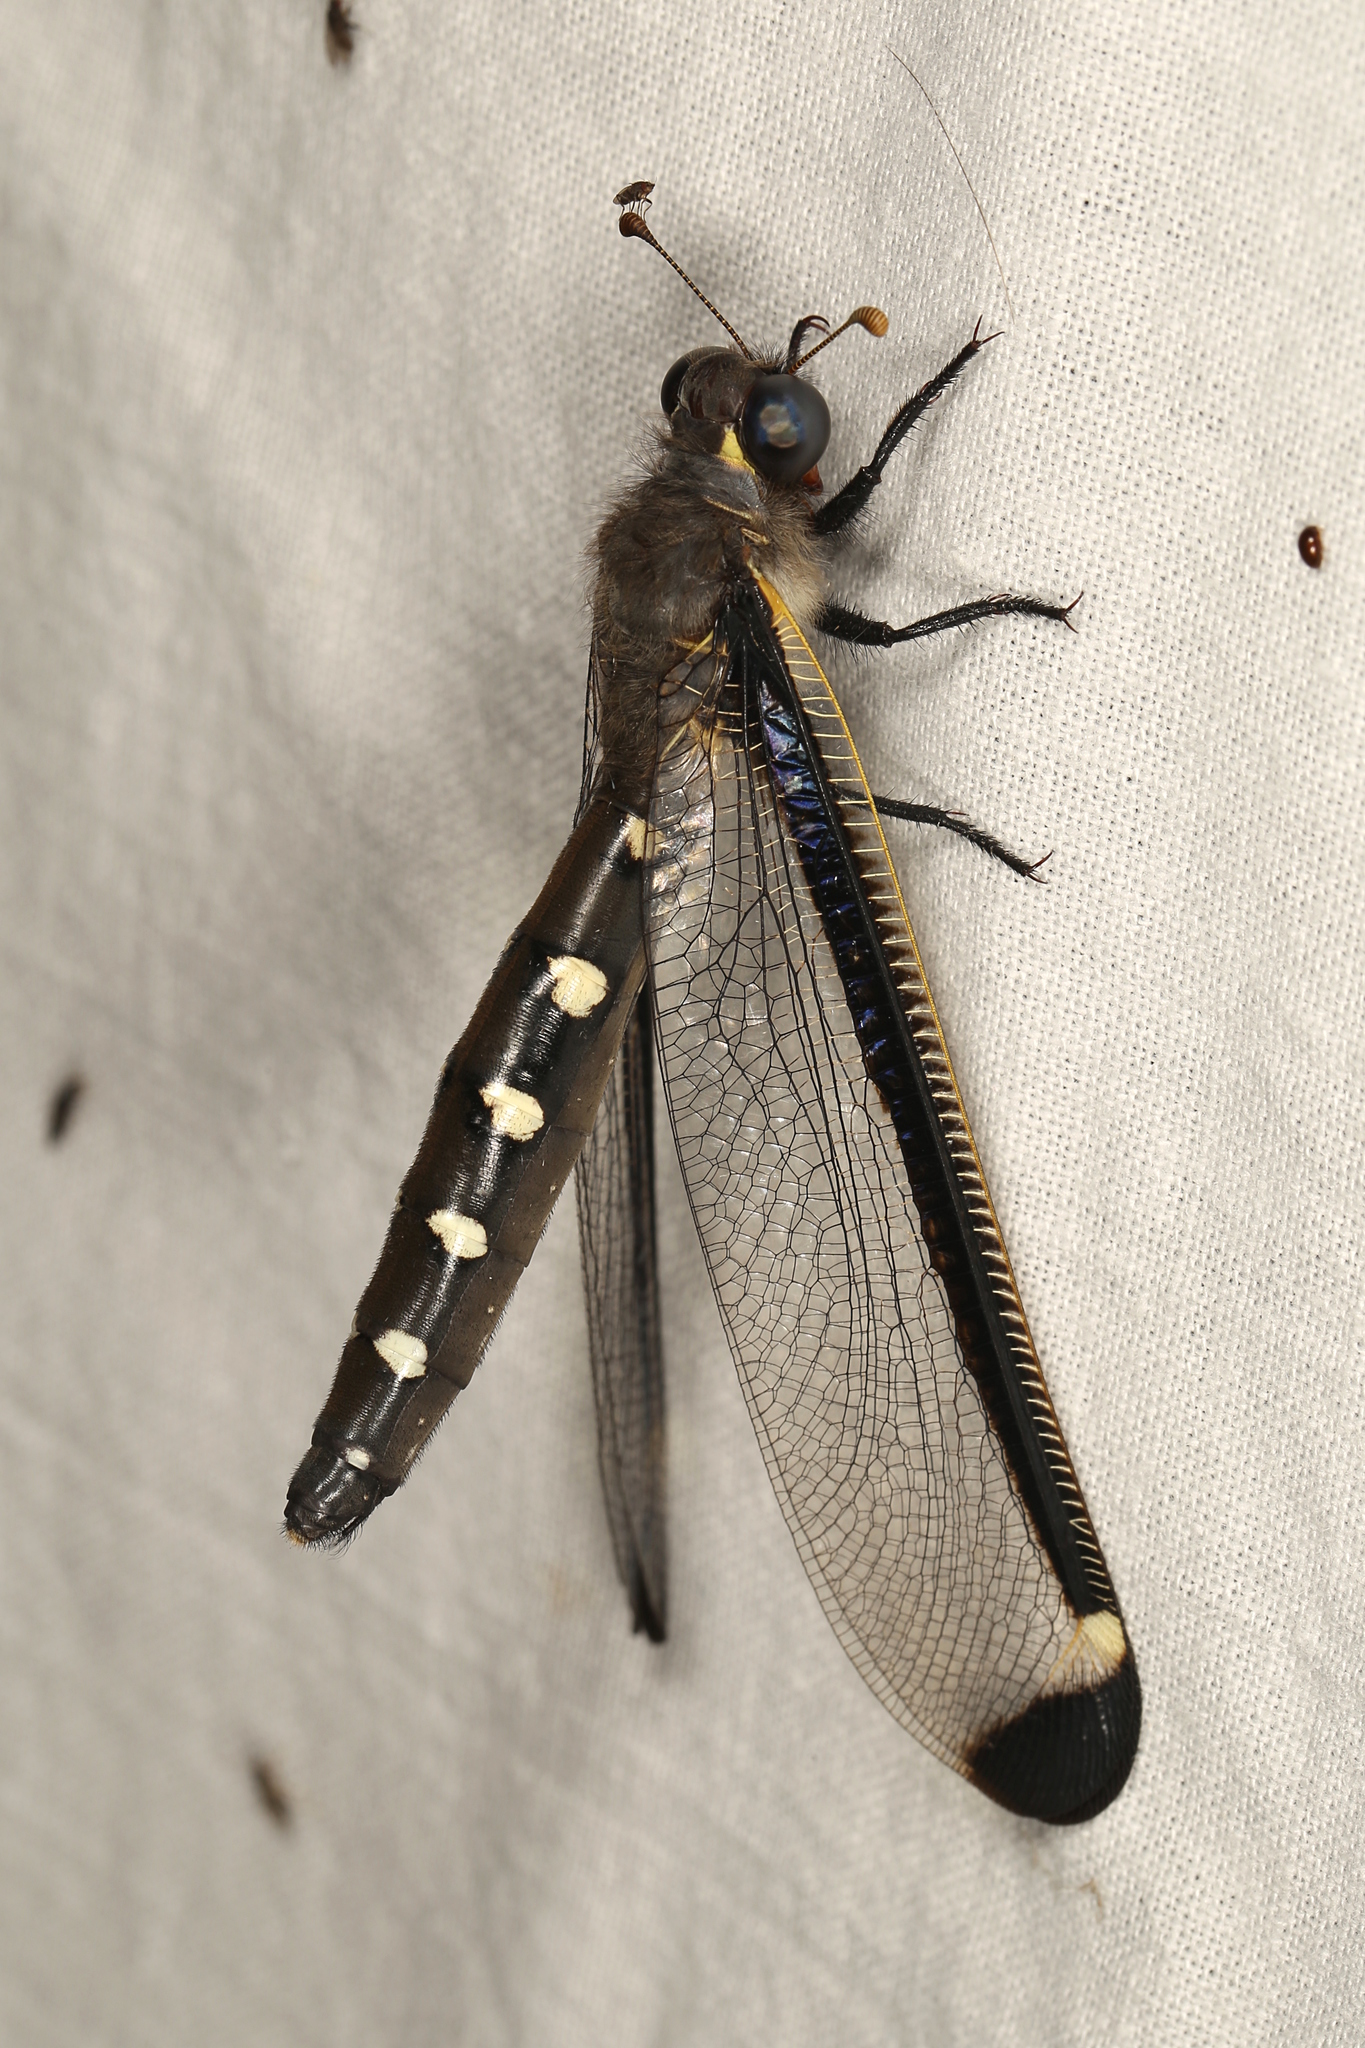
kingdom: Animalia
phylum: Arthropoda
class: Insecta
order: Neuroptera
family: Myrmeleontidae
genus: Stilbopteryx
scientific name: Stilbopteryx napoleo
